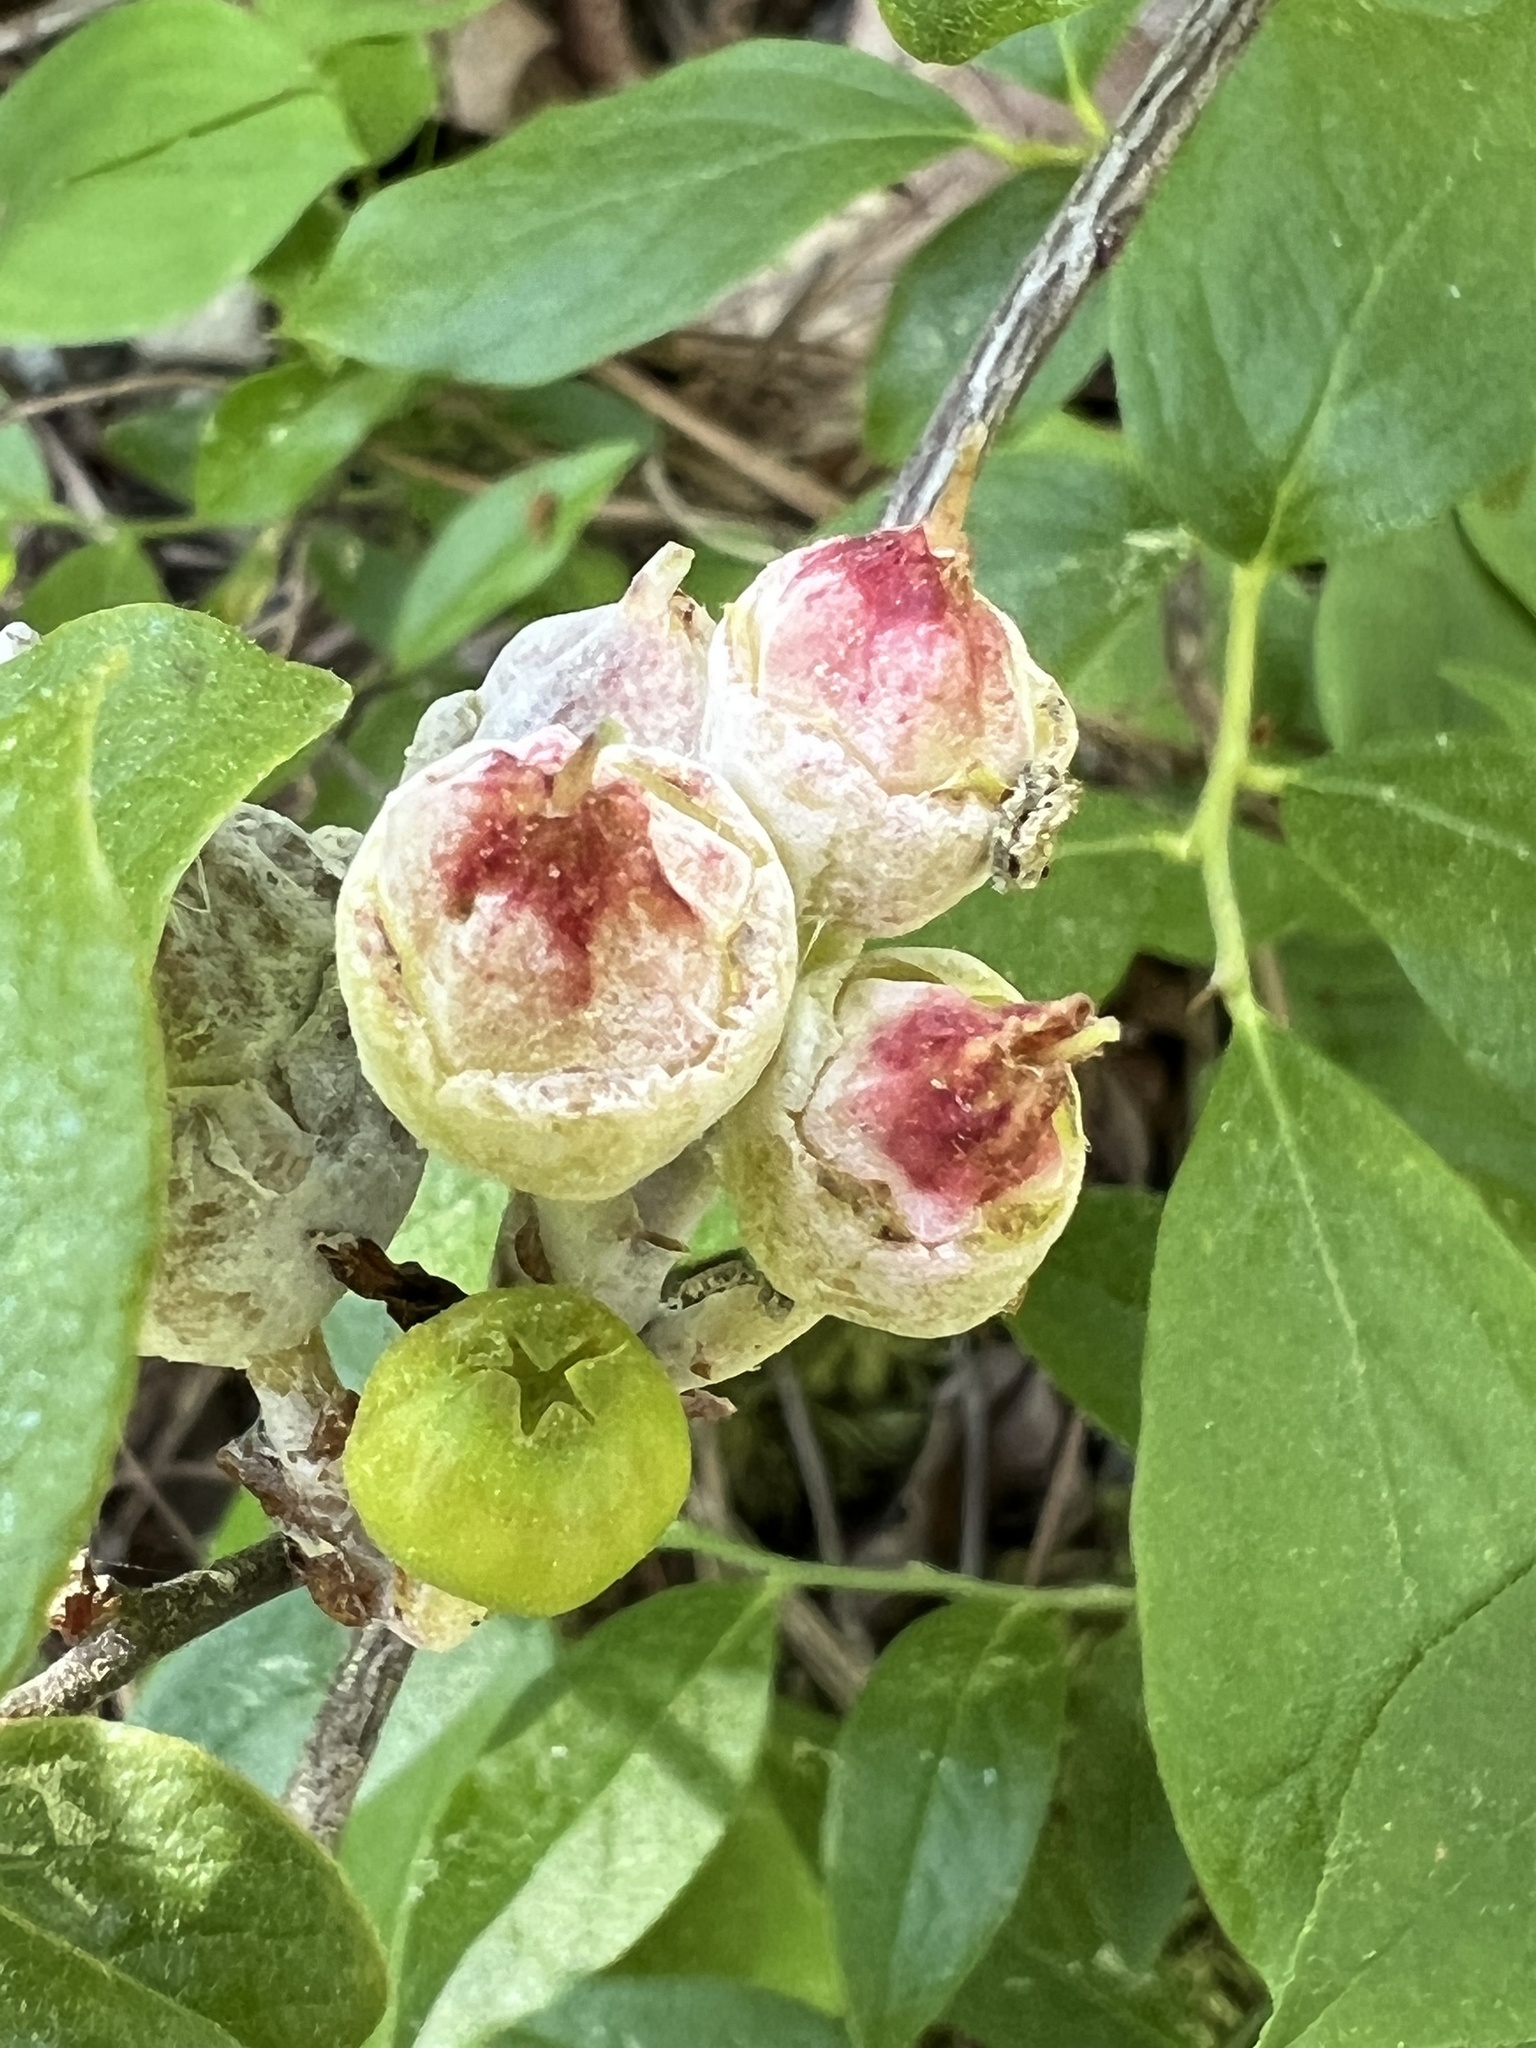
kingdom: Fungi
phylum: Basidiomycota
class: Exobasidiomycetes
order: Exobasidiales
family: Exobasidiaceae
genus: Exobasidium
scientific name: Exobasidium vaccinii
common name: Cowberry redleaf
